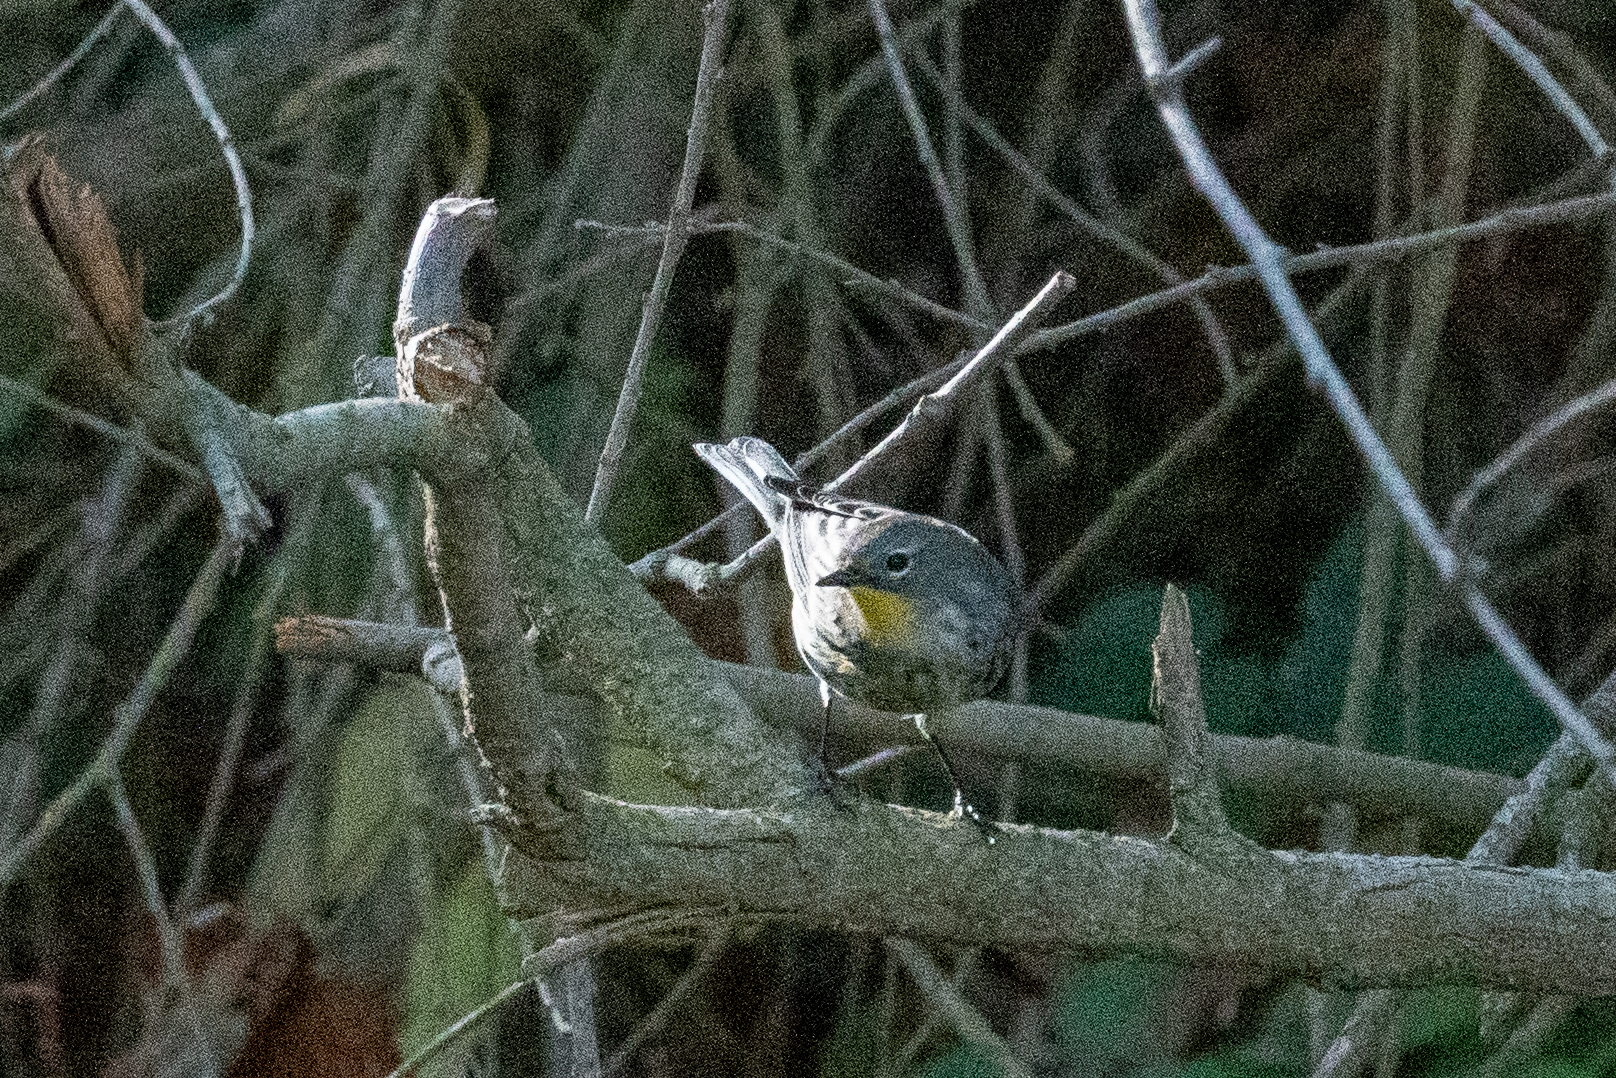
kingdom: Animalia
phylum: Chordata
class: Aves
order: Passeriformes
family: Parulidae
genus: Setophaga
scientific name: Setophaga coronata
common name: Myrtle warbler
